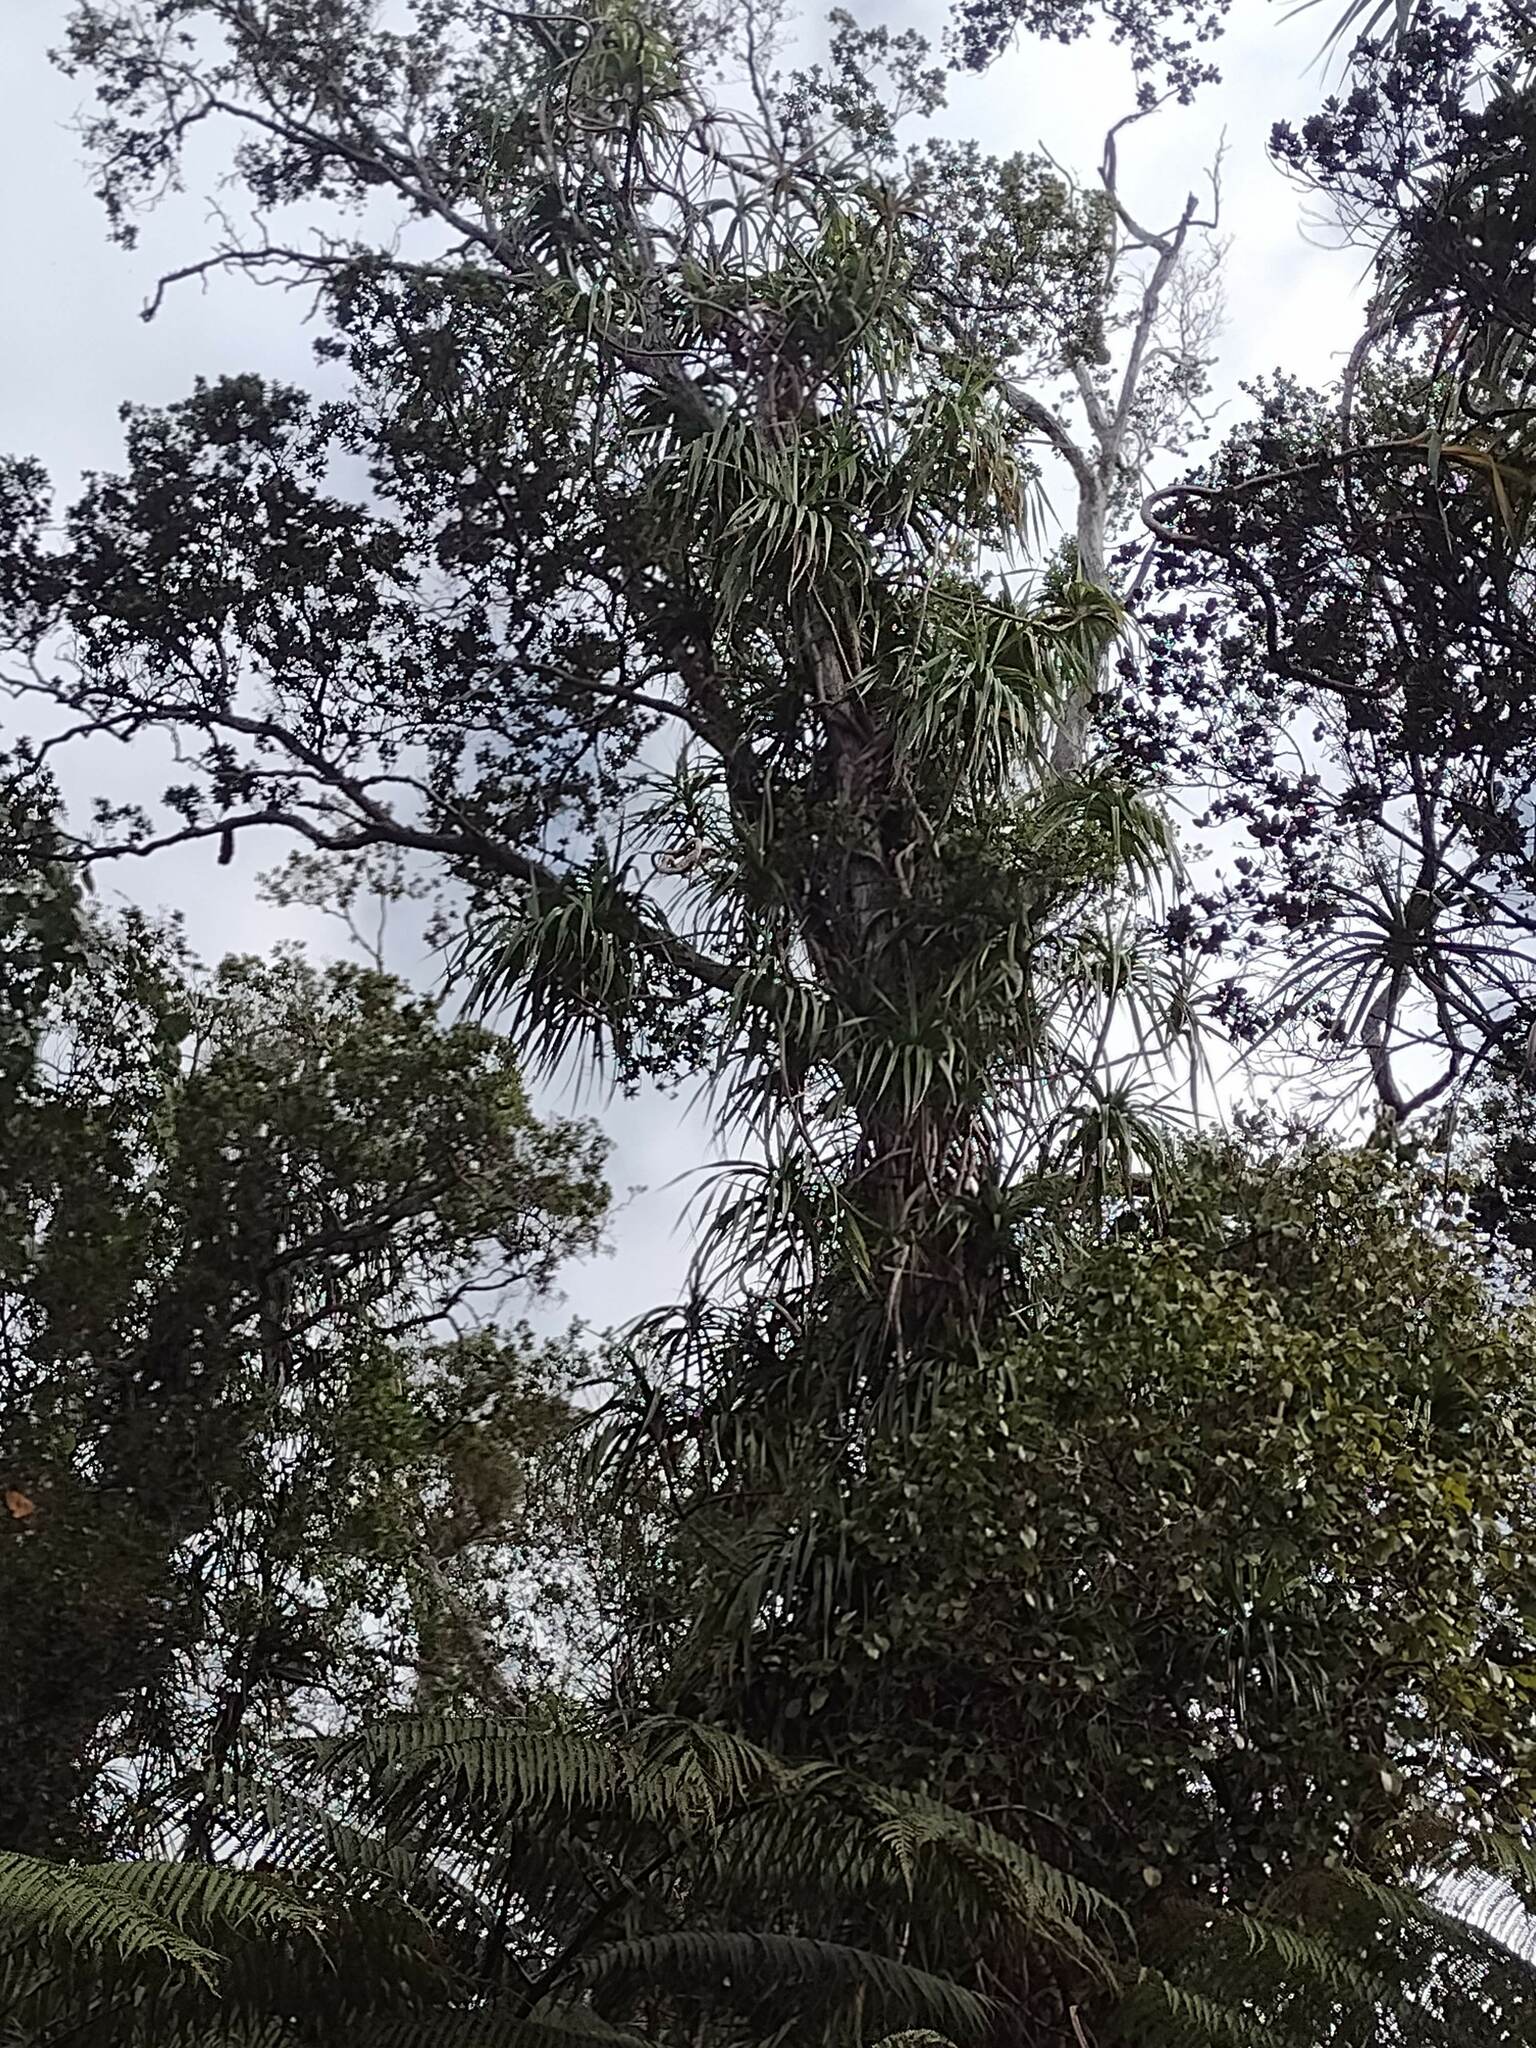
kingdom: Plantae
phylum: Tracheophyta
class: Liliopsida
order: Pandanales
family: Pandanaceae
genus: Freycinetia
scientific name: Freycinetia arborea
